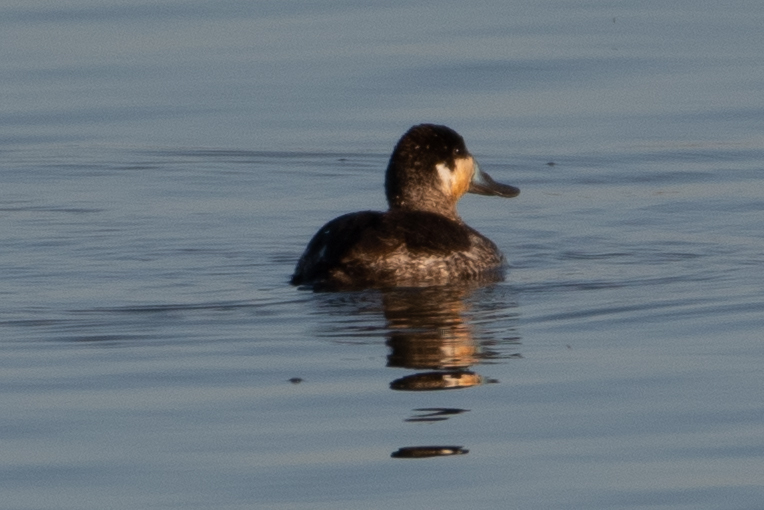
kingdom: Animalia
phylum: Chordata
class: Aves
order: Anseriformes
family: Anatidae
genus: Oxyura
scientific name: Oxyura jamaicensis
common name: Ruddy duck
